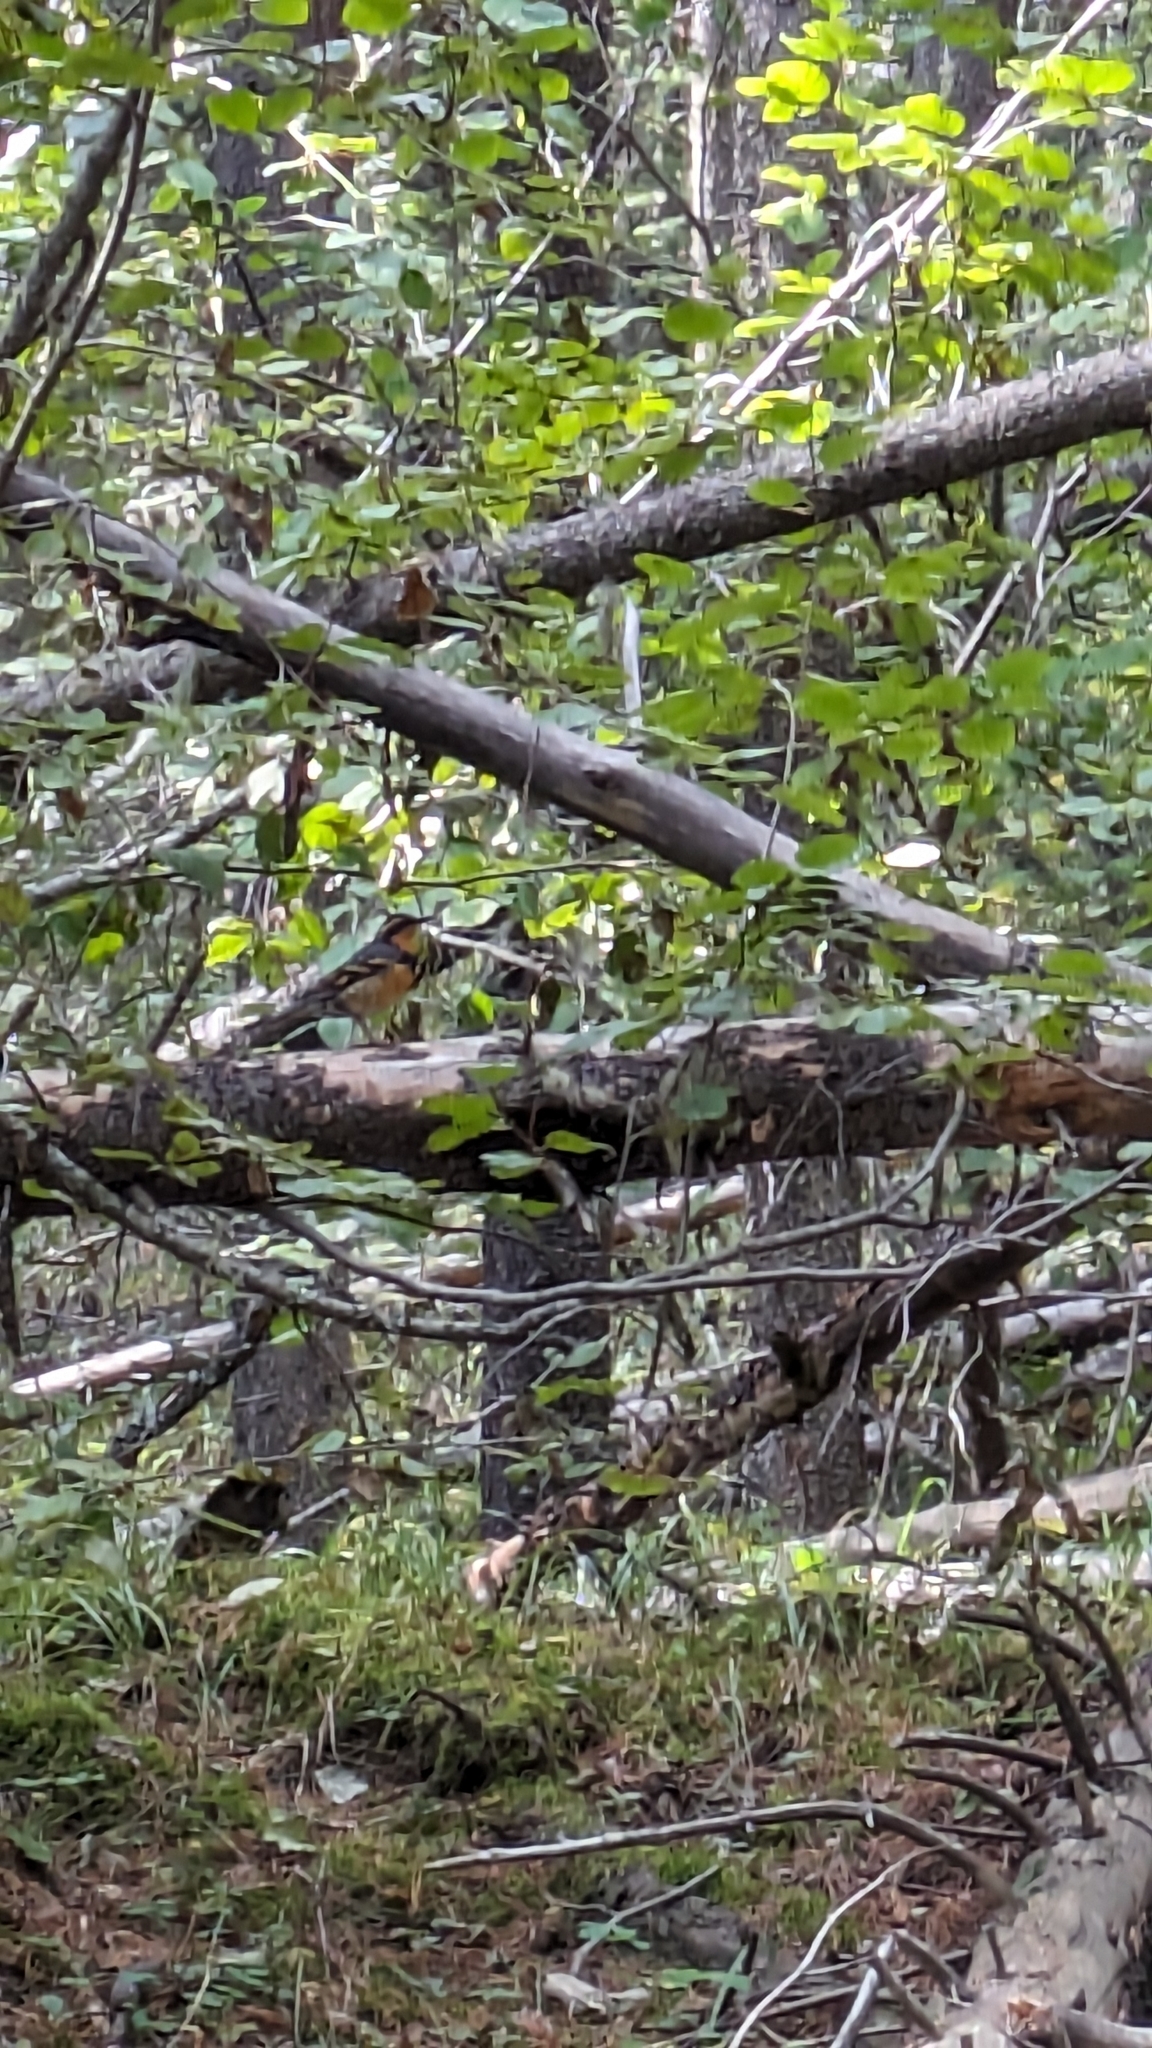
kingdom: Animalia
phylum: Chordata
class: Aves
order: Passeriformes
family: Turdidae
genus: Ixoreus
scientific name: Ixoreus naevius
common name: Varied thrush
